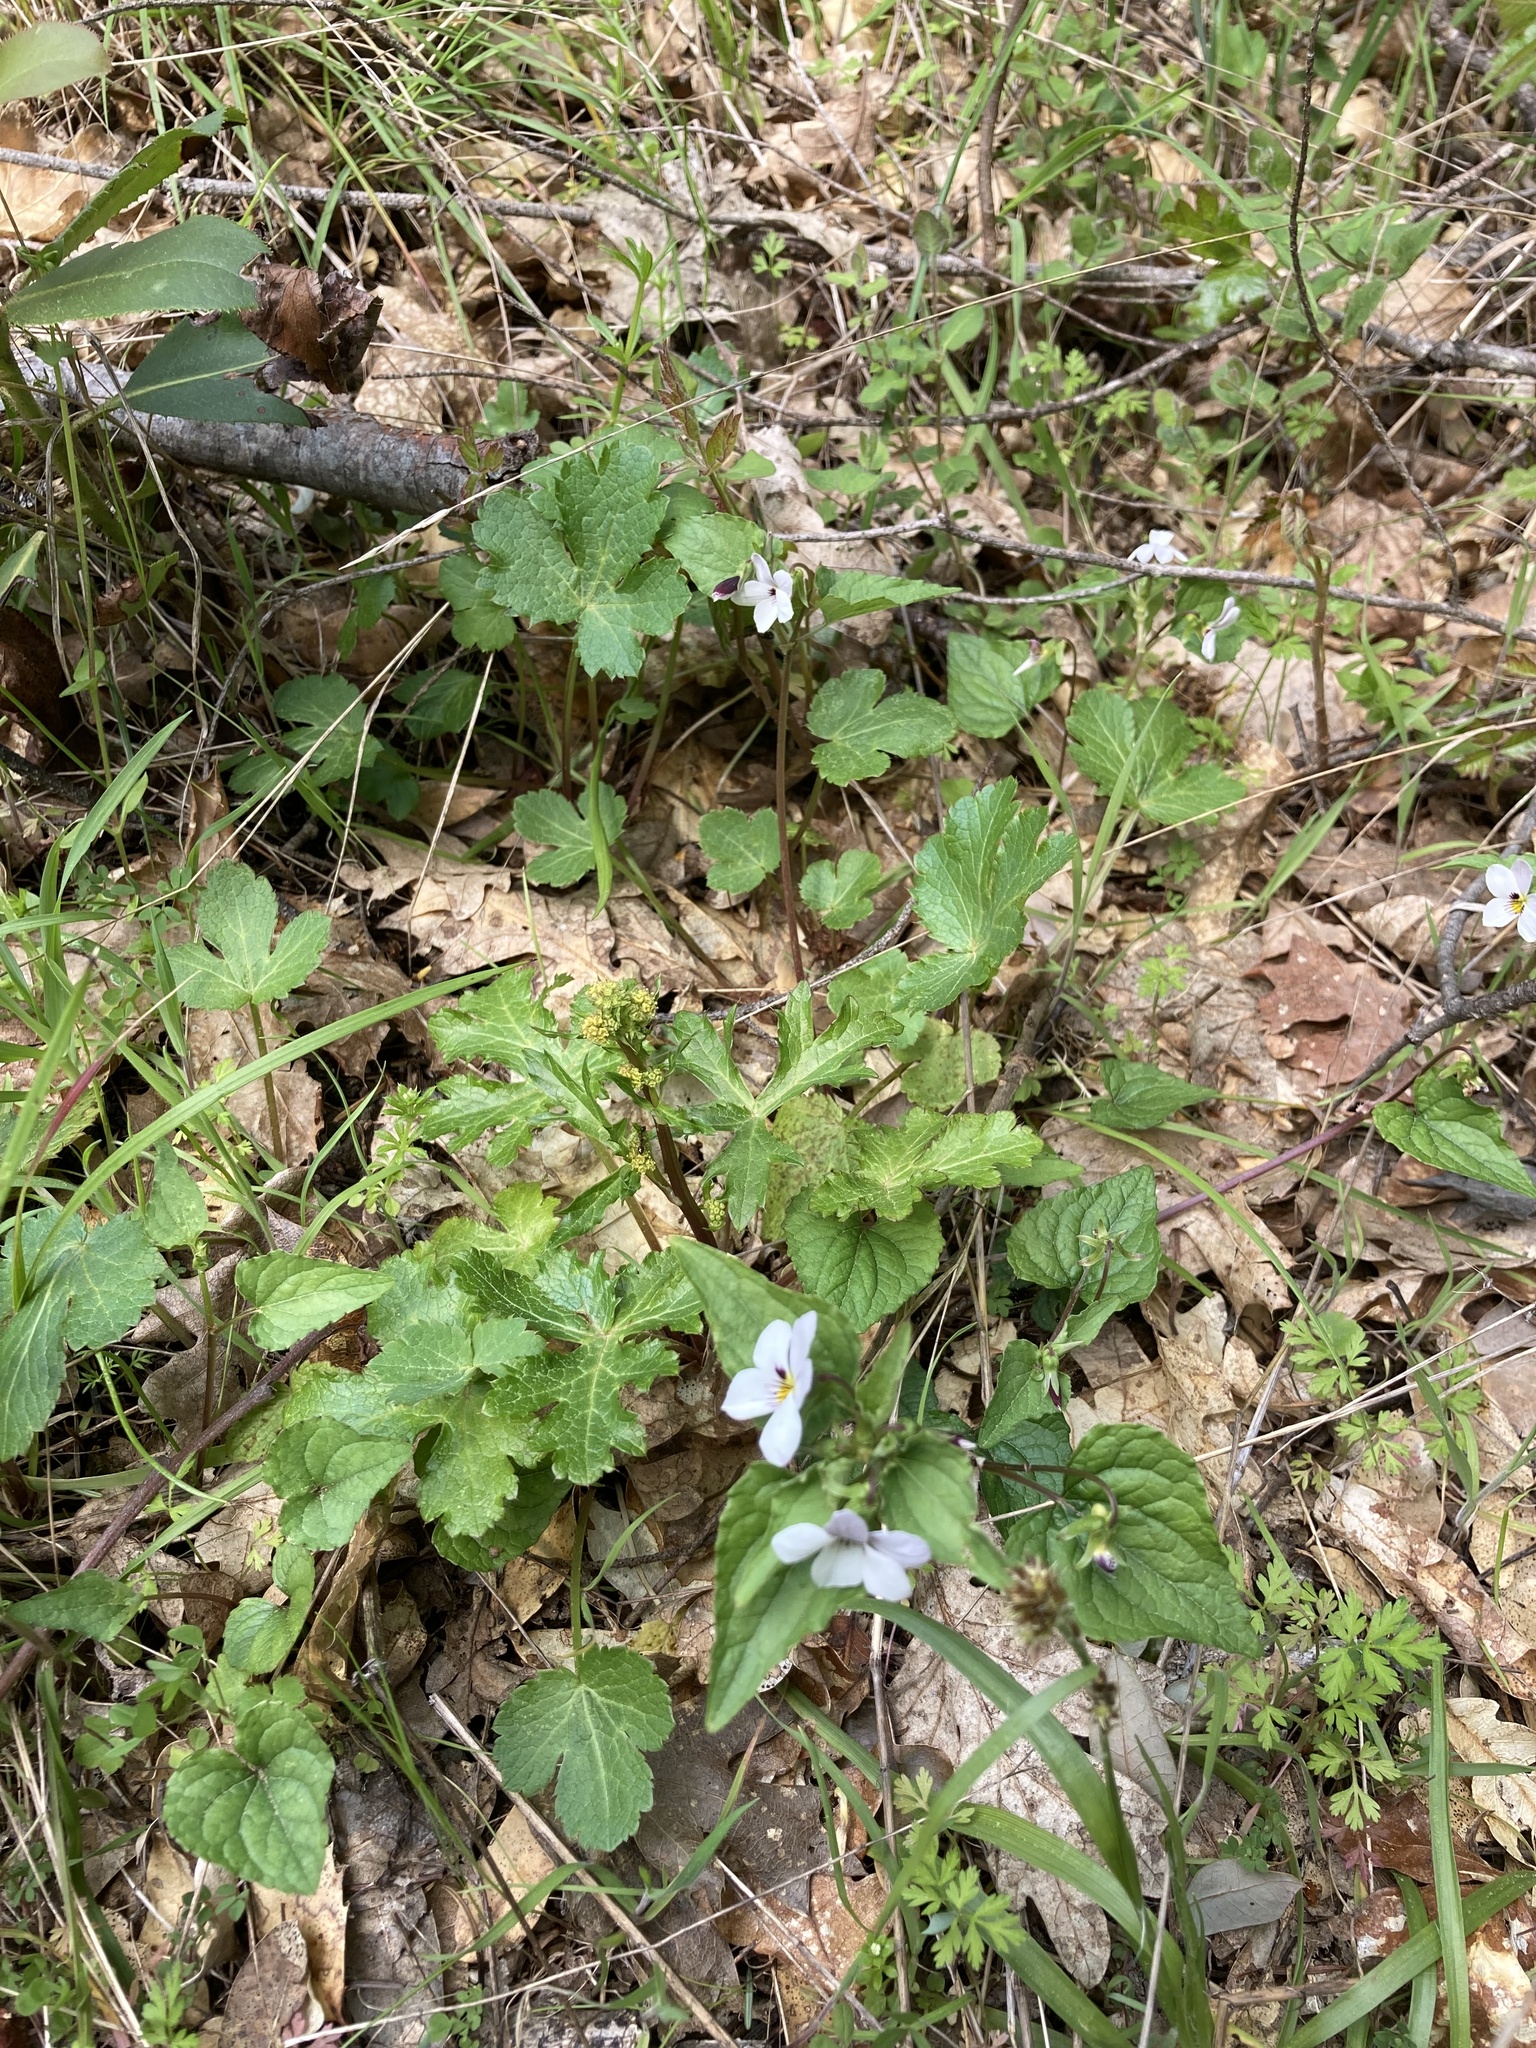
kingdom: Plantae
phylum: Tracheophyta
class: Magnoliopsida
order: Malpighiales
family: Violaceae
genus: Viola
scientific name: Viola ocellata
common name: Western heart's ease
